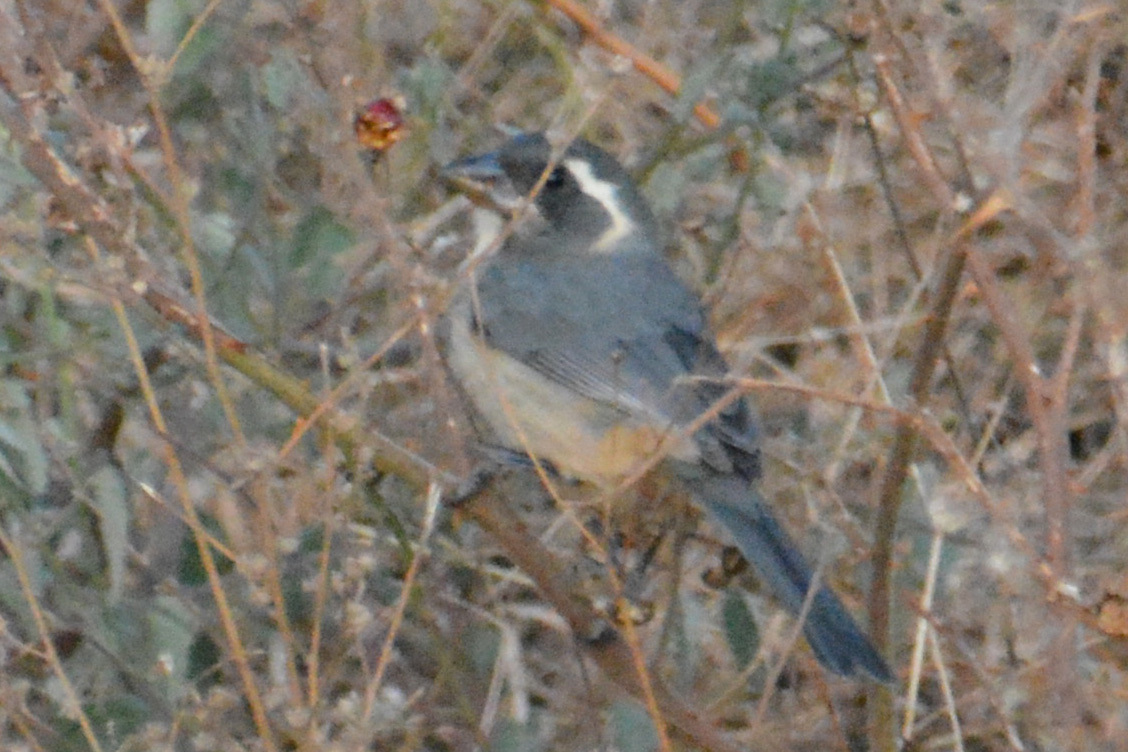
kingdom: Animalia
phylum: Chordata
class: Aves
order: Passeriformes
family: Thraupidae
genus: Saltator
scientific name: Saltator aurantiirostris
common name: Golden-billed saltator
